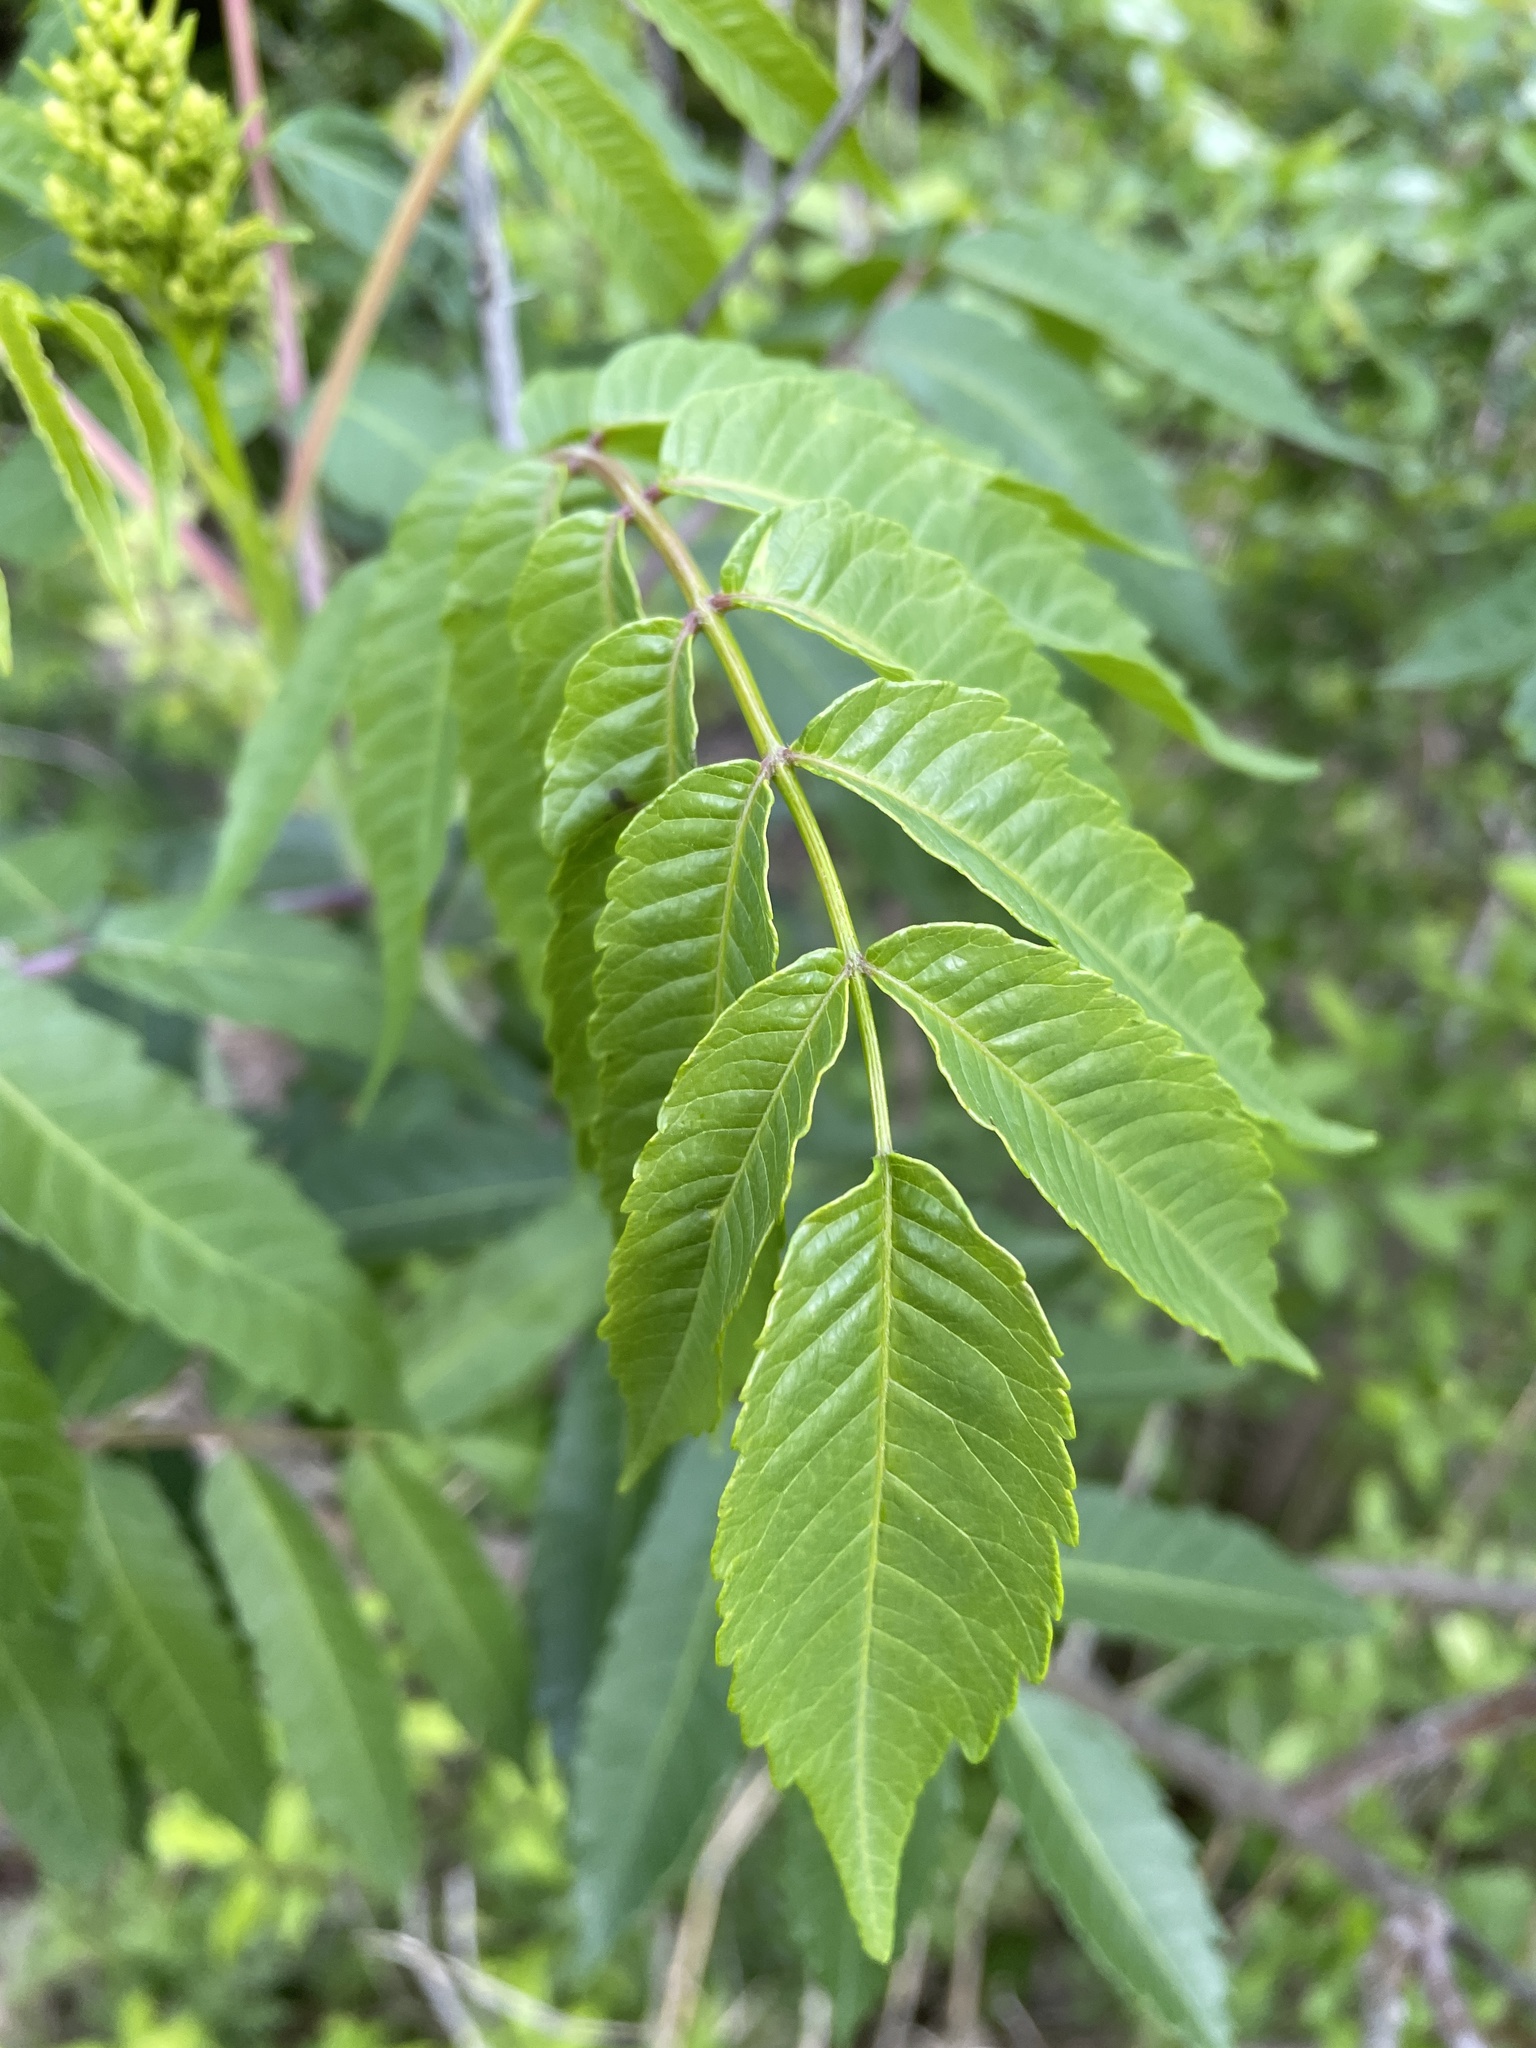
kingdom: Plantae
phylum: Tracheophyta
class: Magnoliopsida
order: Sapindales
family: Anacardiaceae
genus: Rhus
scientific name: Rhus glabra
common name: Scarlet sumac
